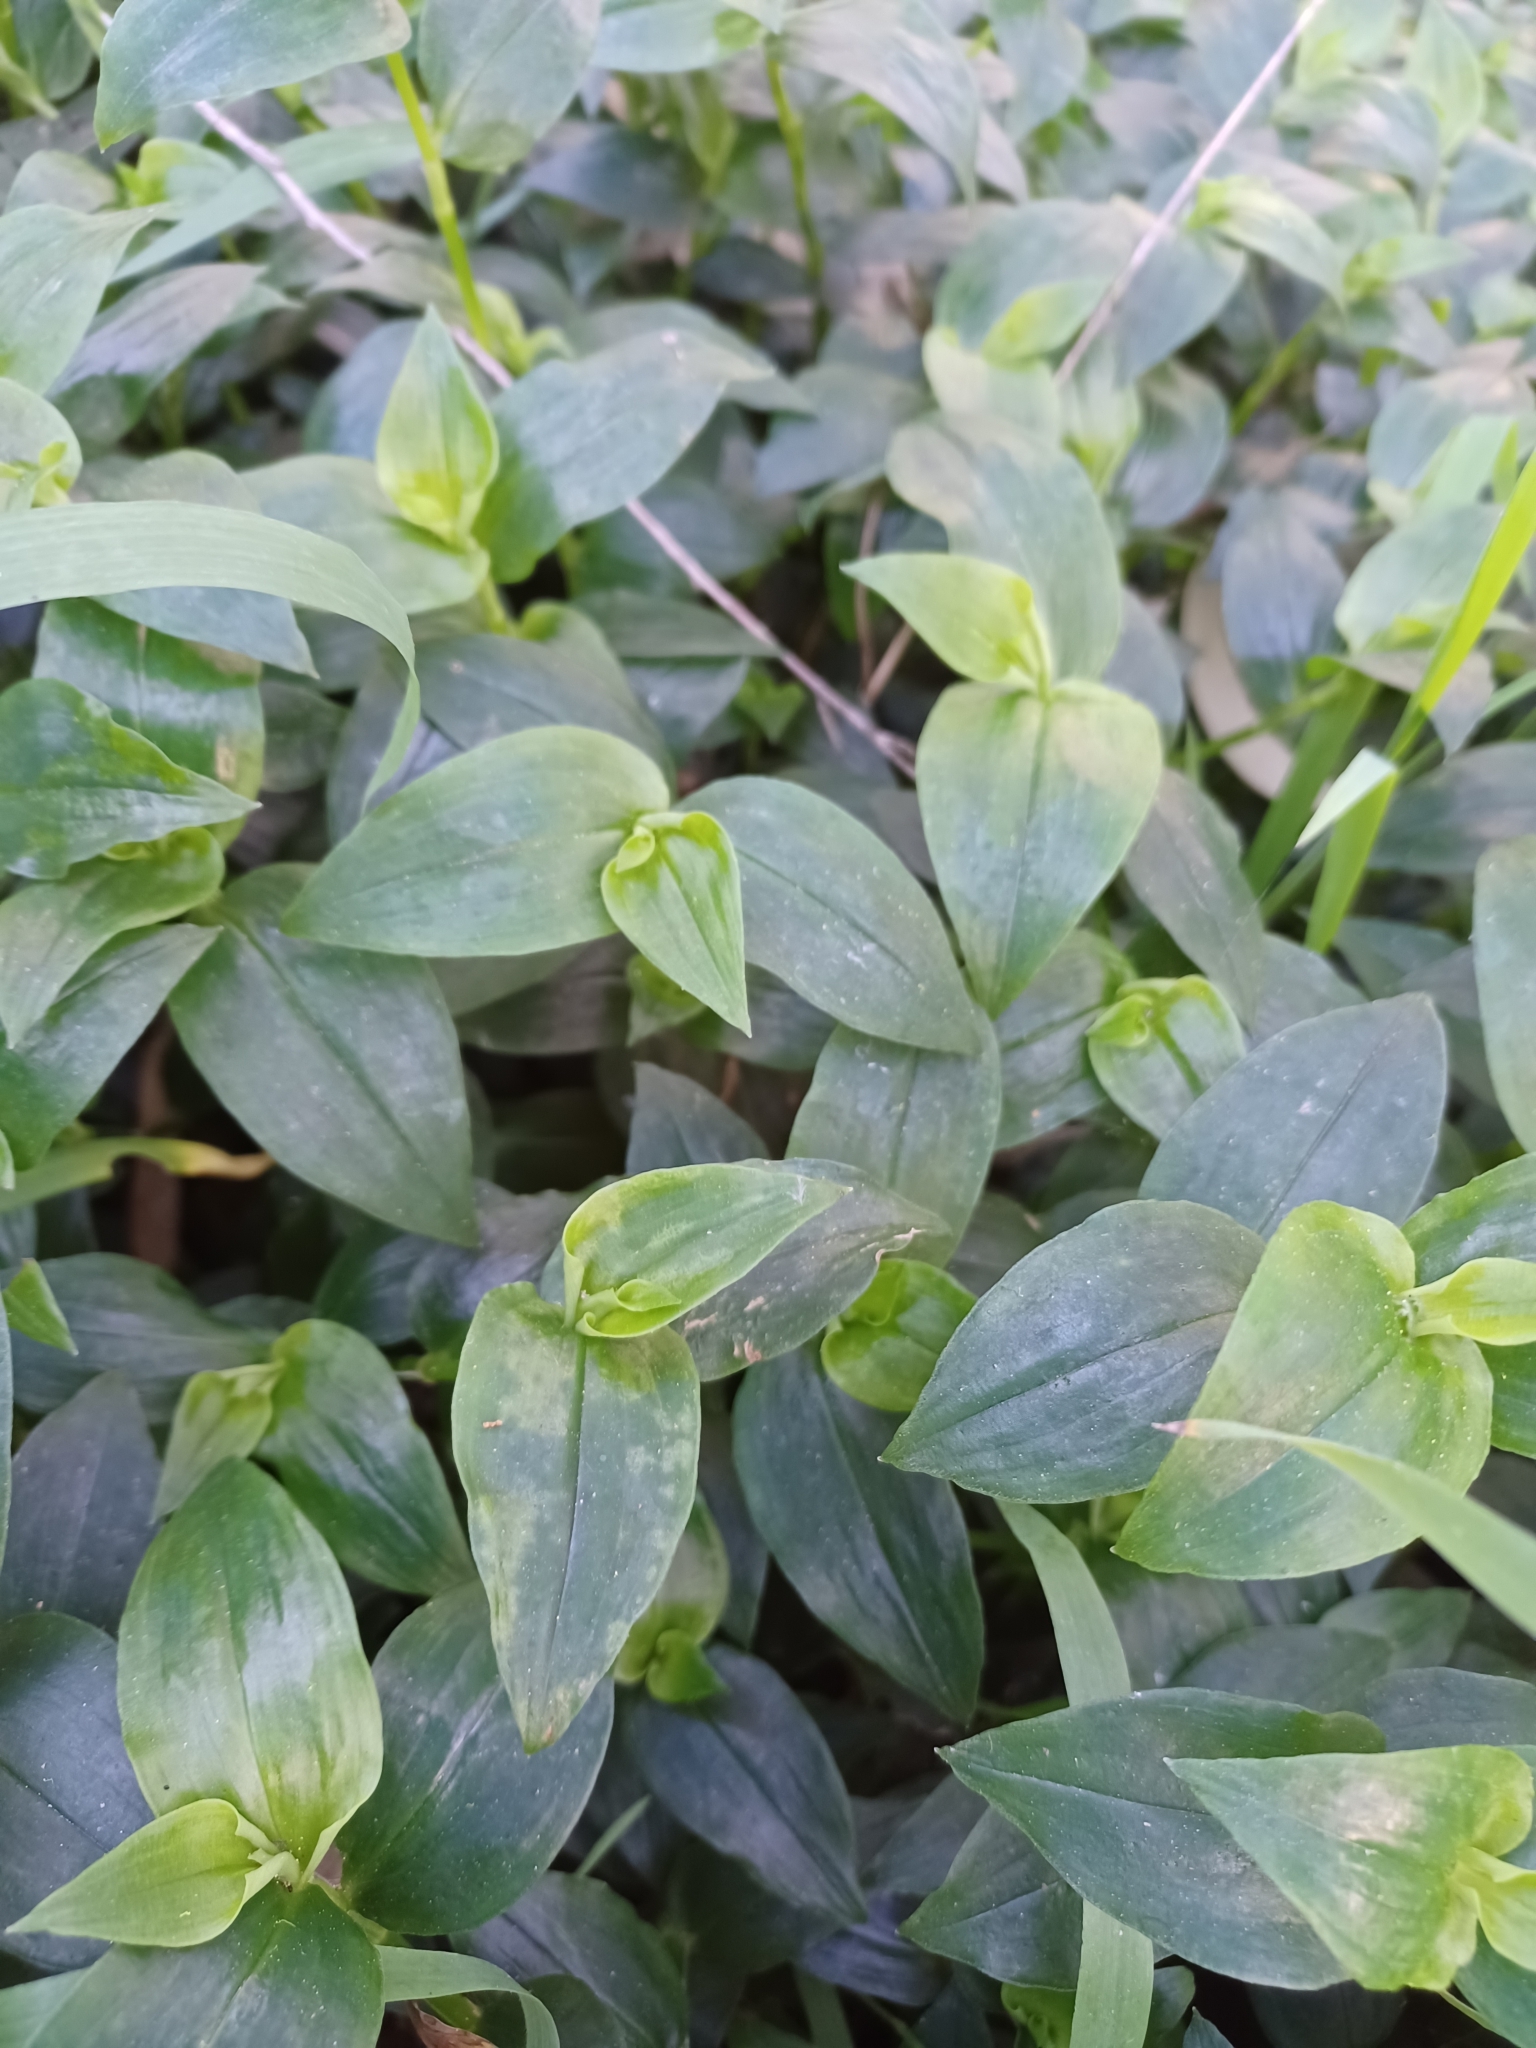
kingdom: Plantae
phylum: Tracheophyta
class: Liliopsida
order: Commelinales
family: Commelinaceae
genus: Tradescantia
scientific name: Tradescantia fluminensis
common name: Wandering-jew
